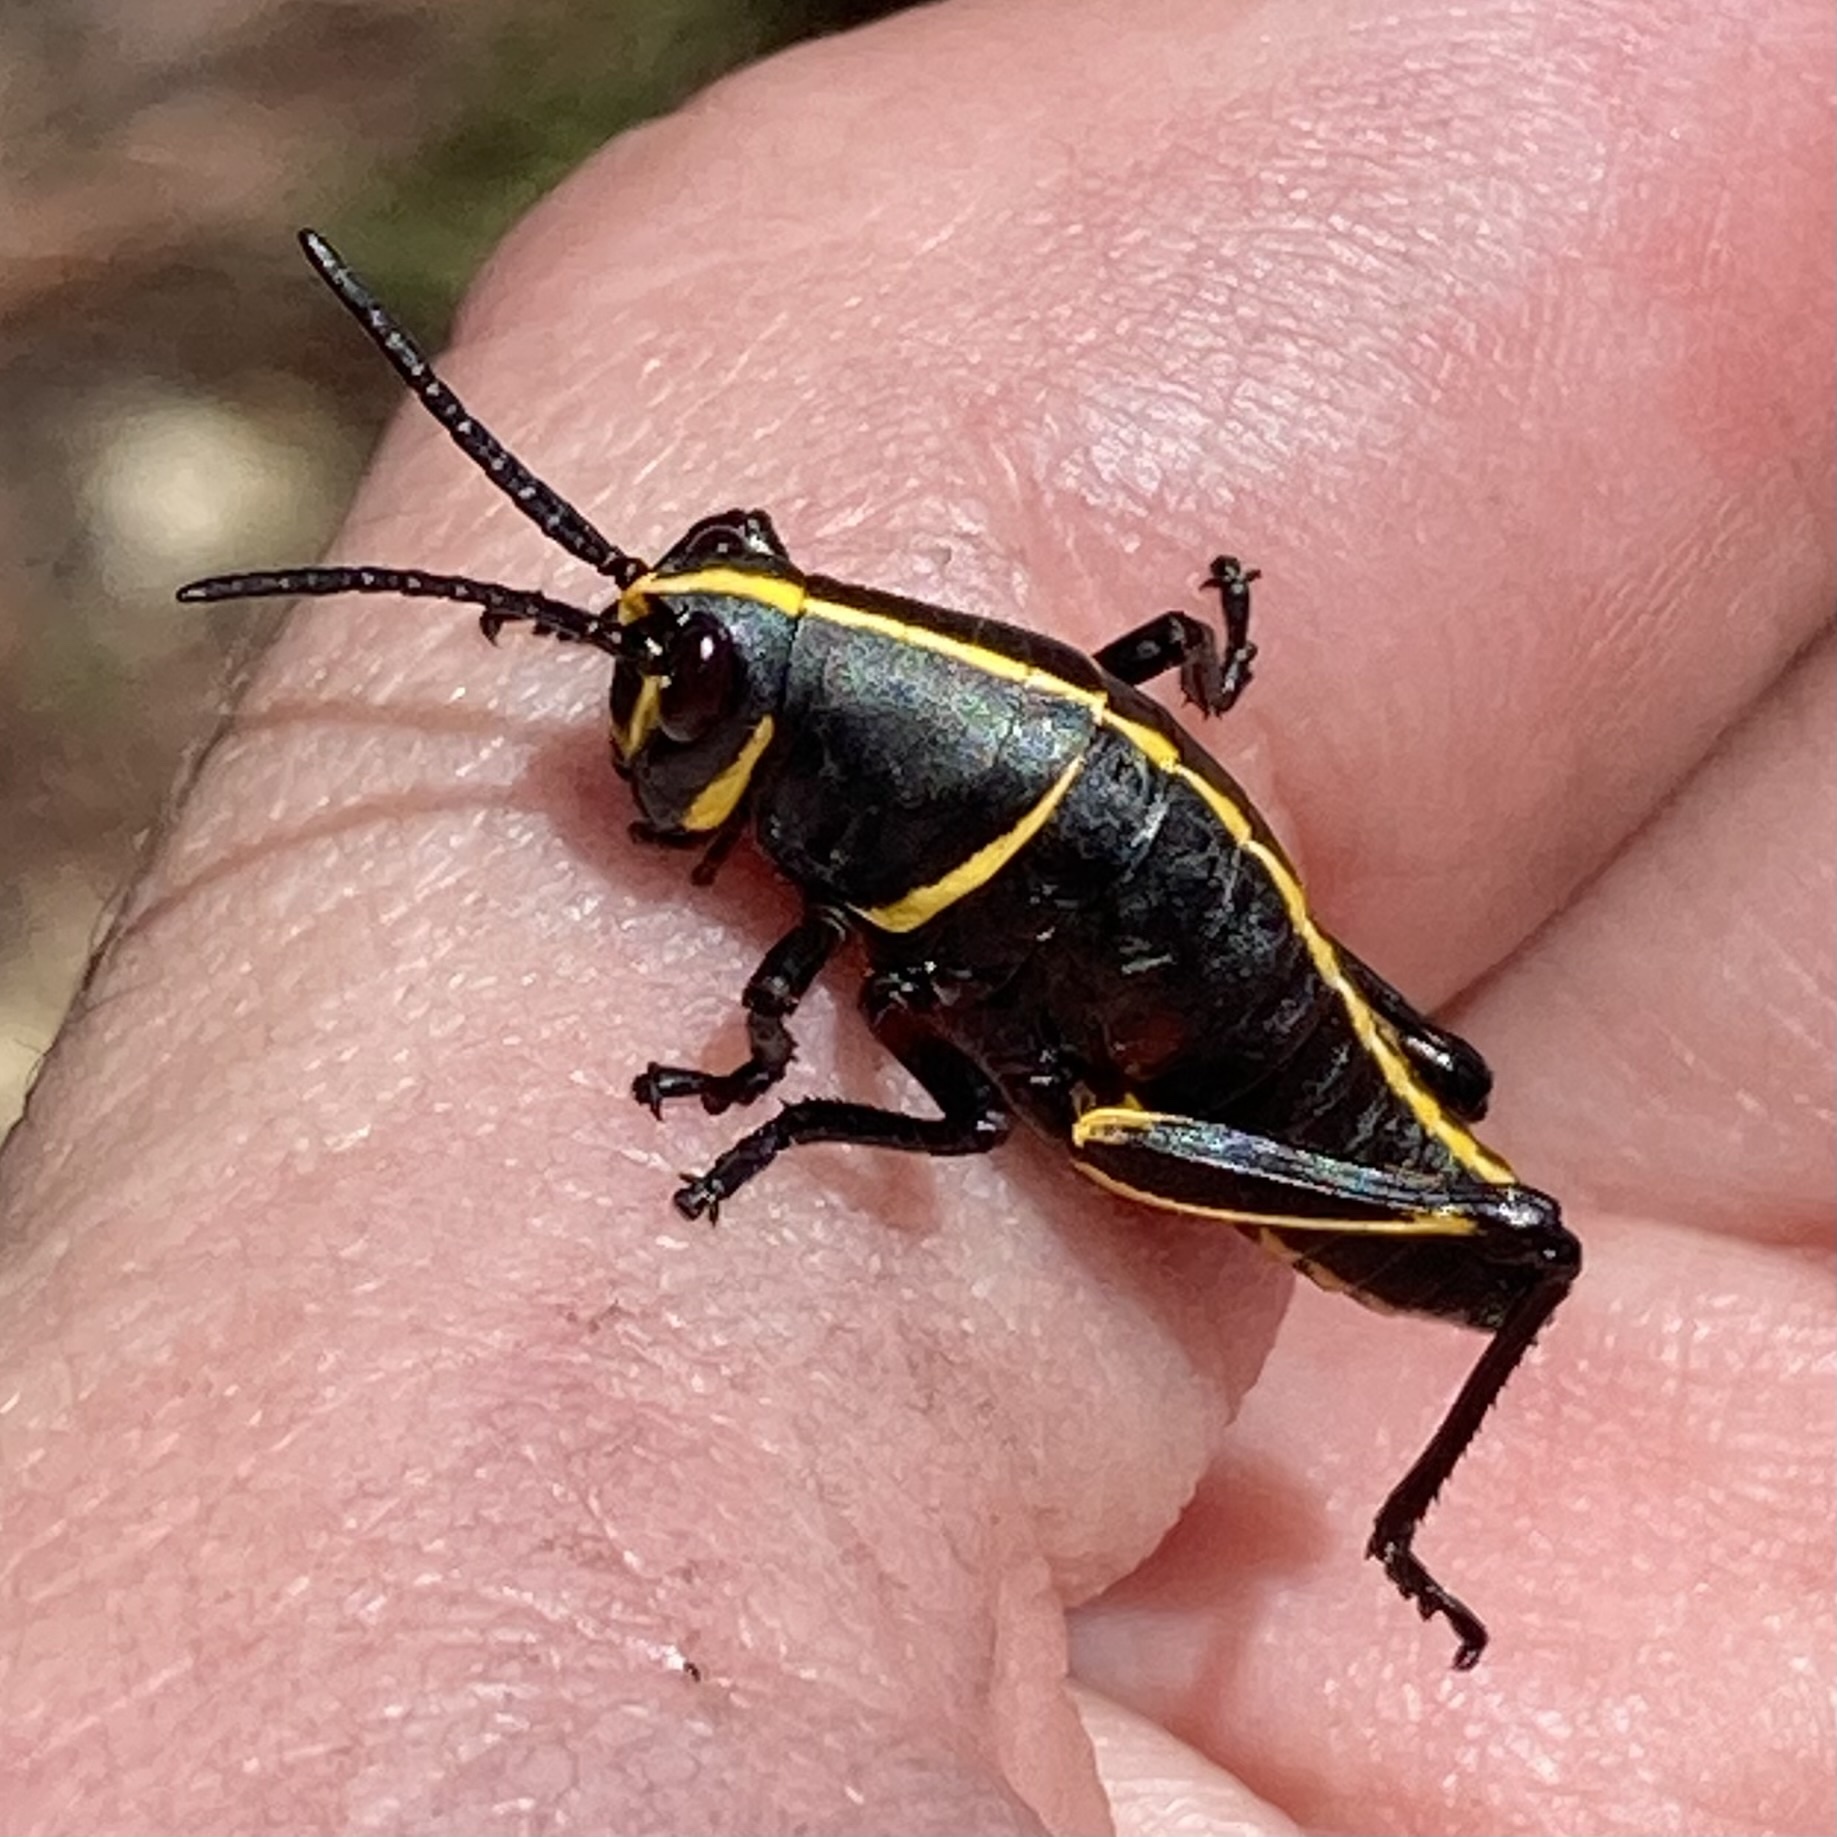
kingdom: Animalia
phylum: Arthropoda
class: Insecta
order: Orthoptera
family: Romaleidae
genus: Romalea
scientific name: Romalea microptera
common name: Eastern lubber grasshopper
